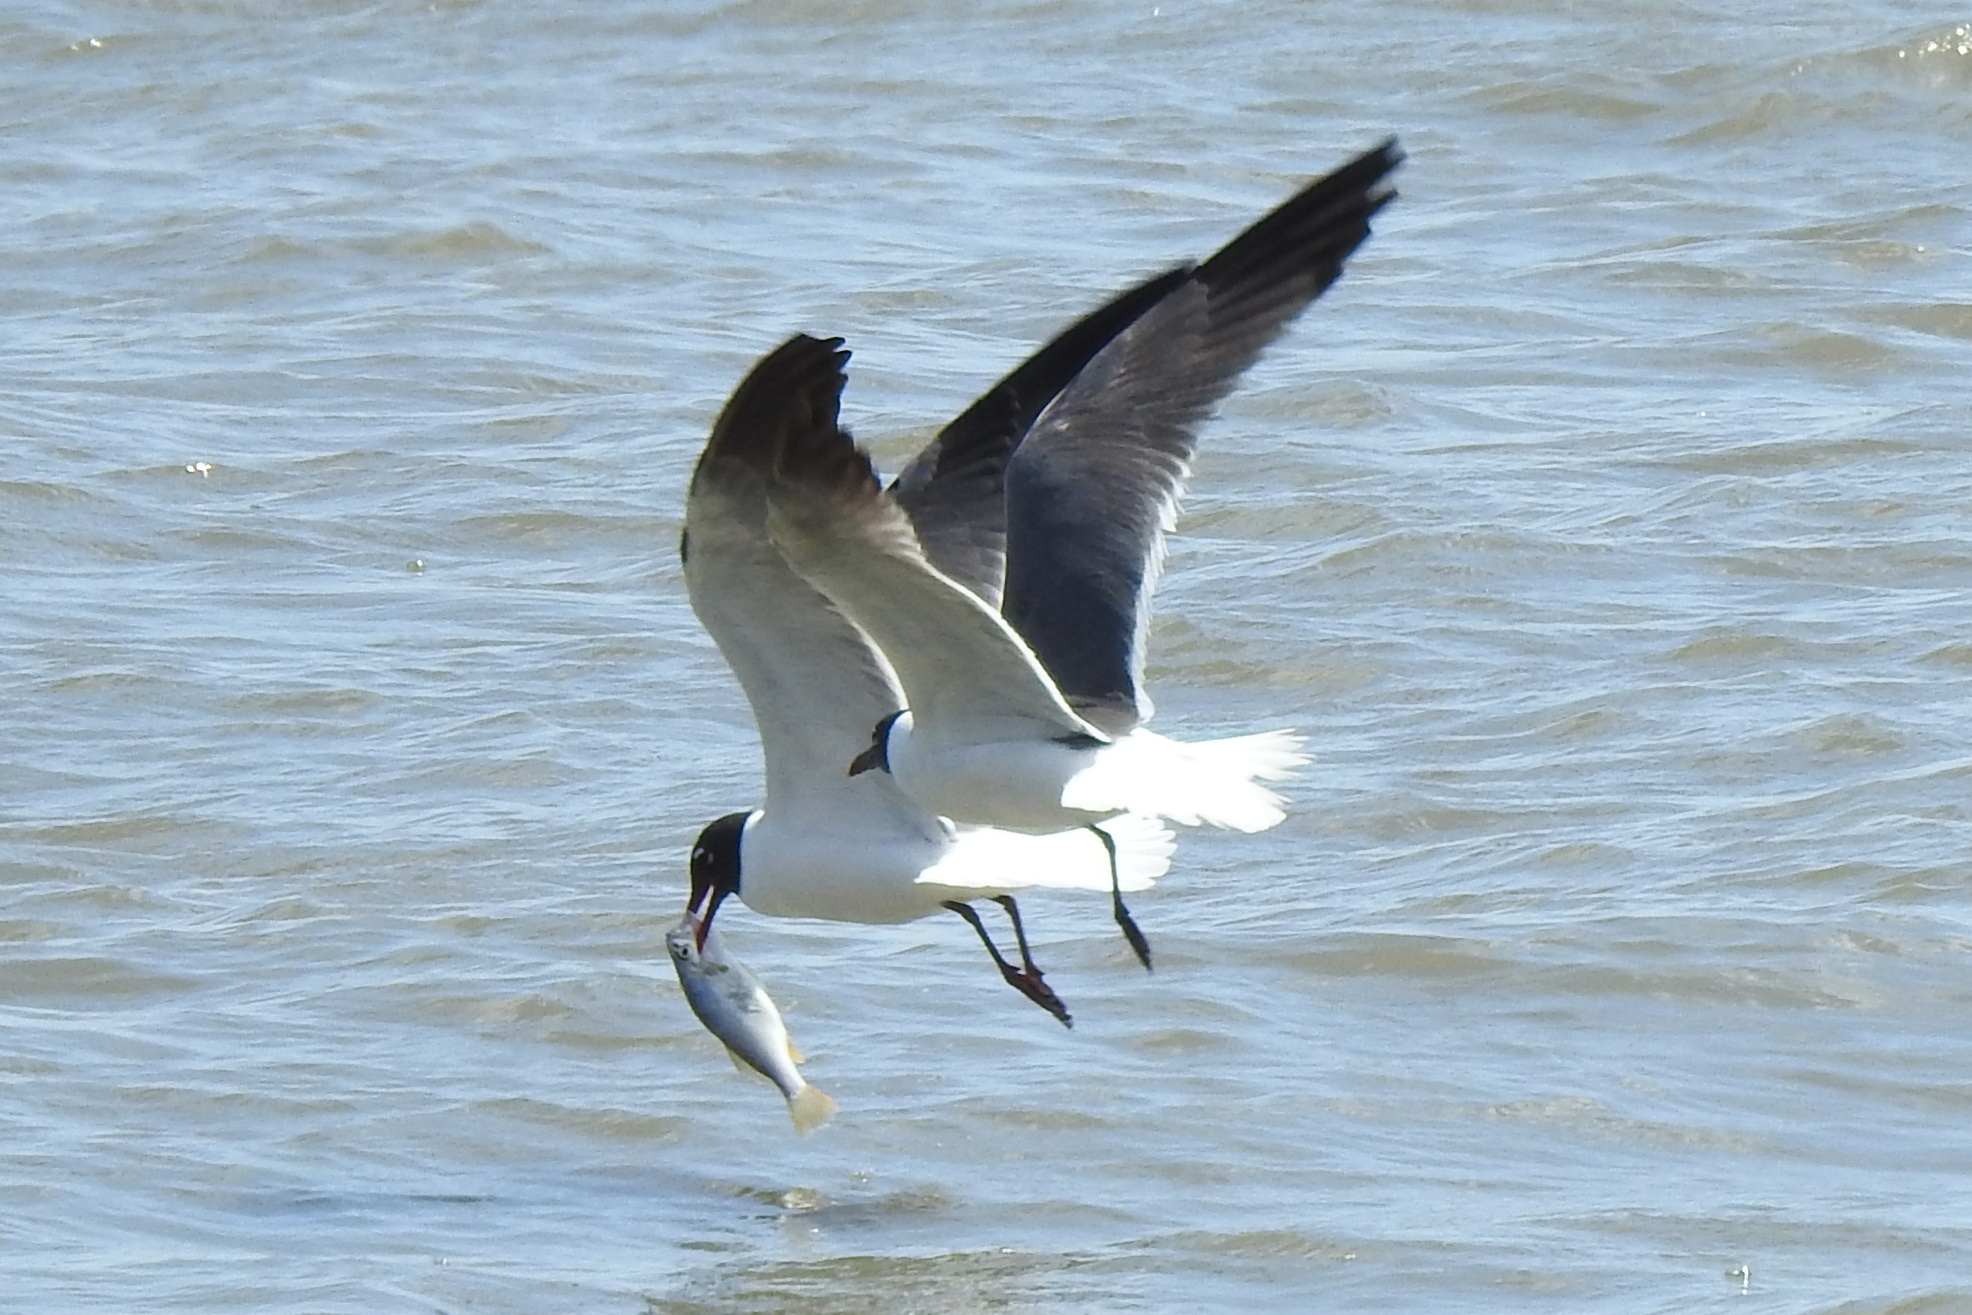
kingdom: Animalia
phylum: Chordata
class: Aves
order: Charadriiformes
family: Laridae
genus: Leucophaeus
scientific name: Leucophaeus atricilla
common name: Laughing gull
